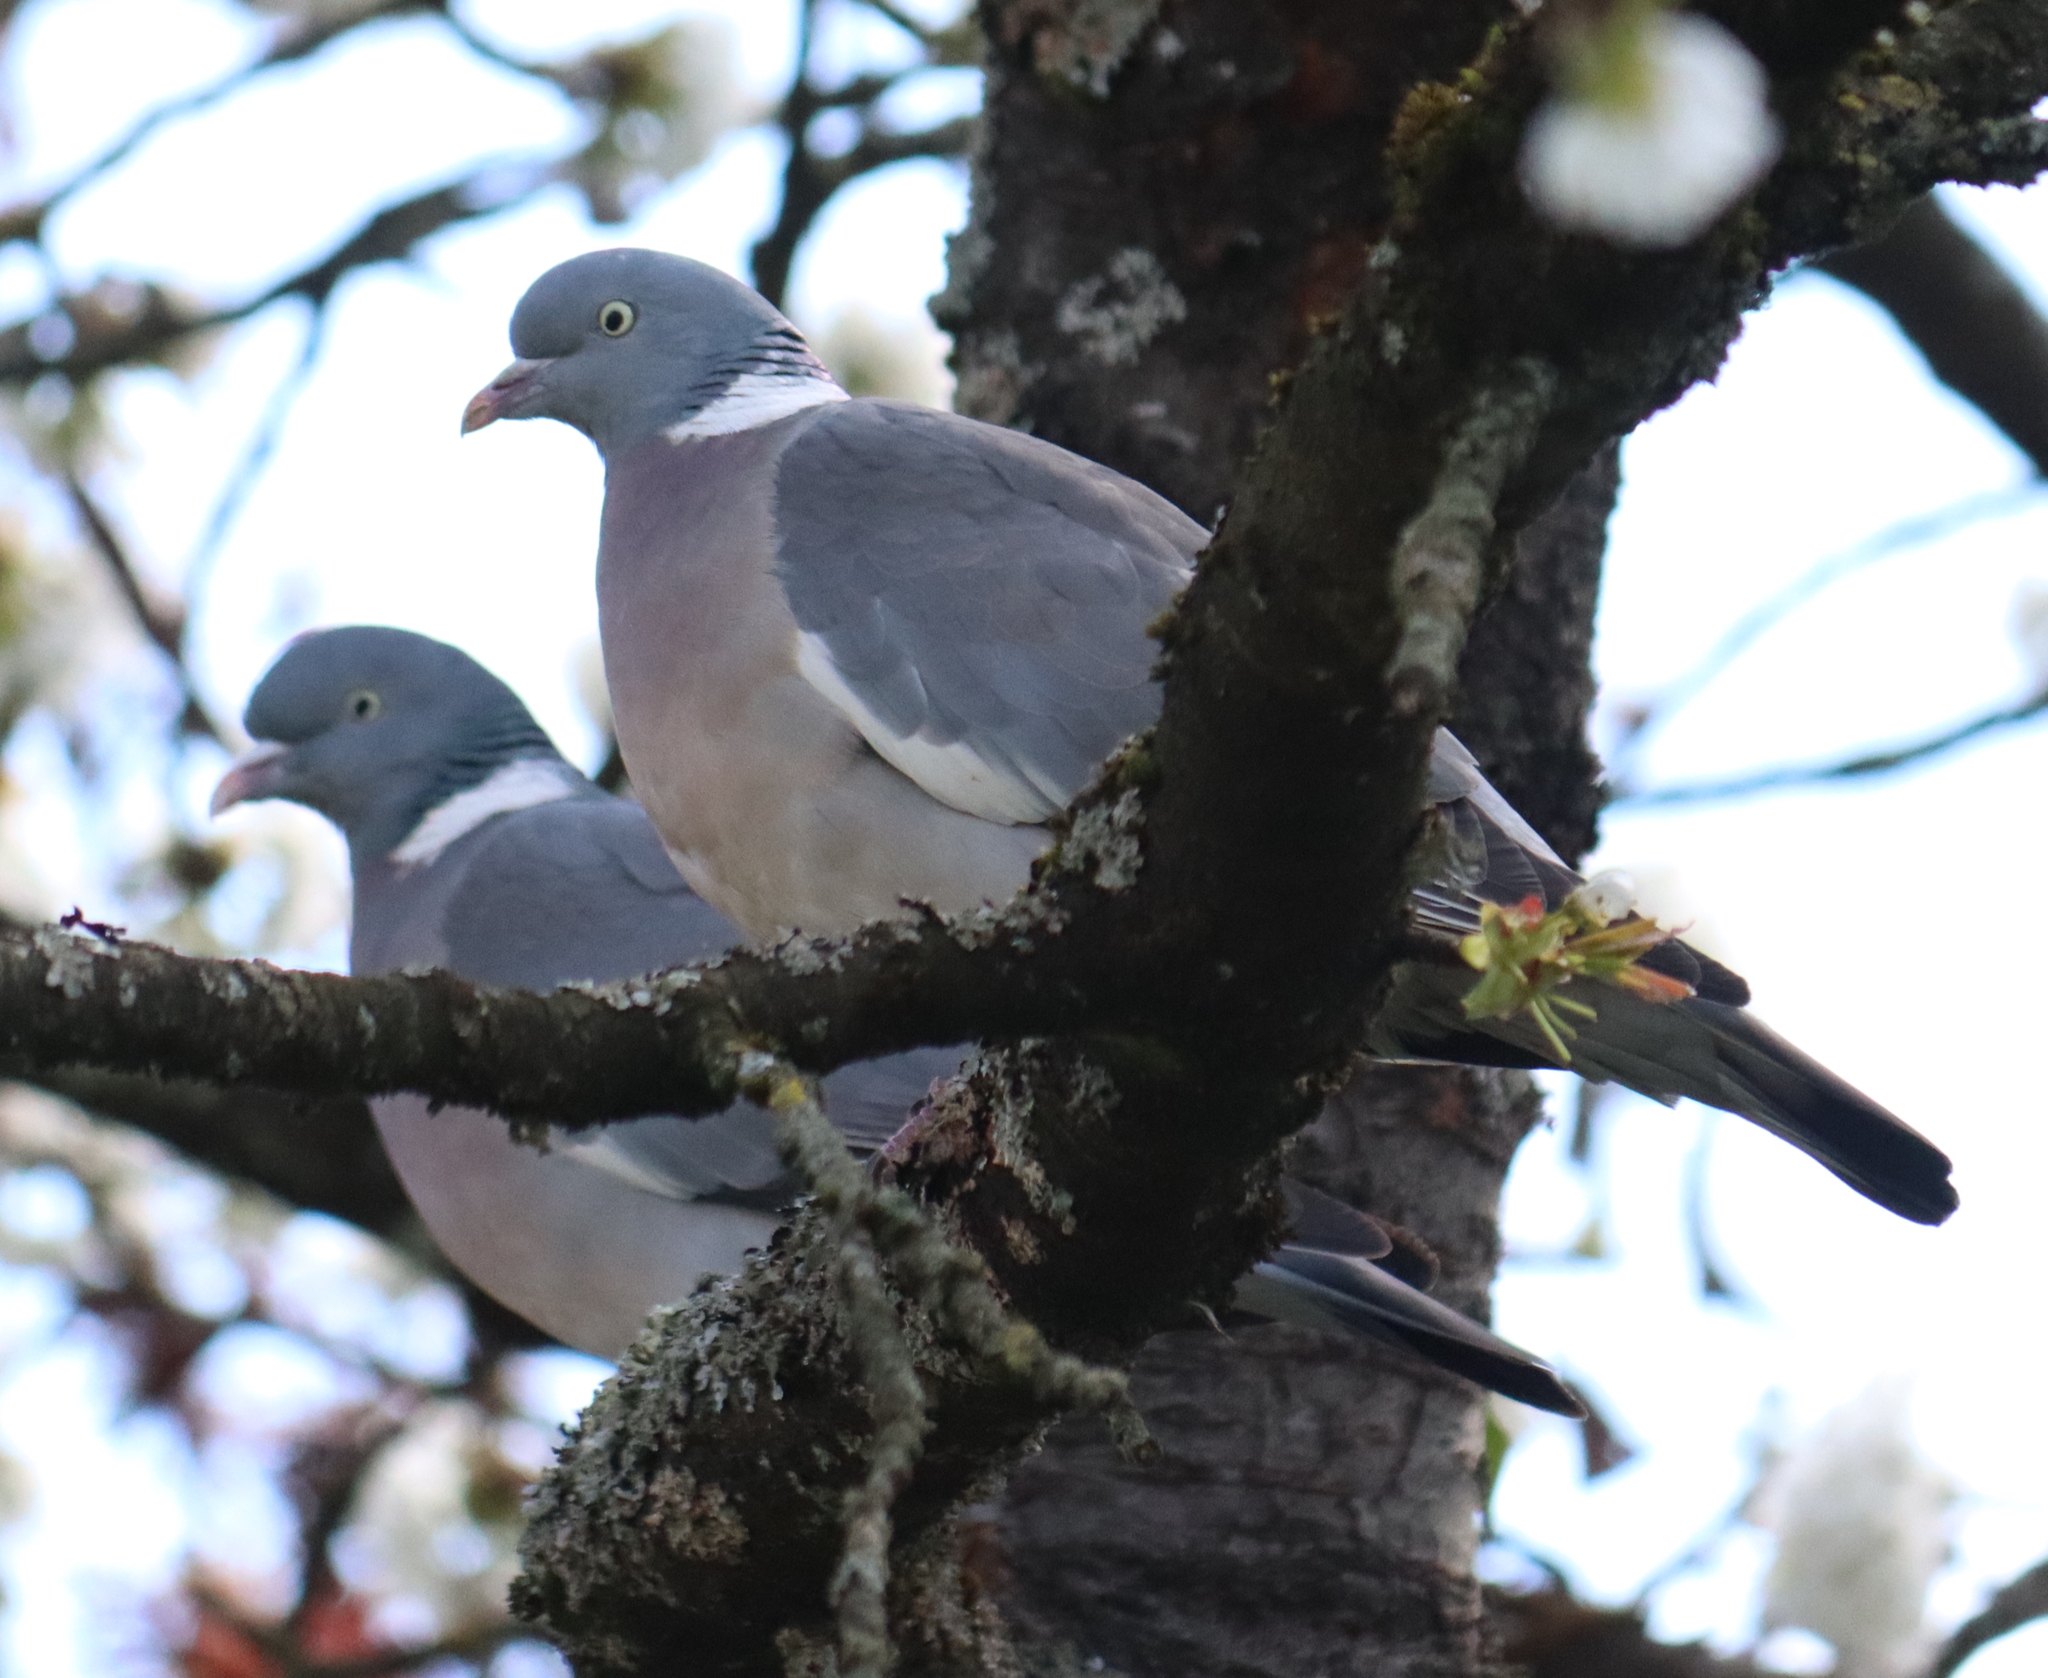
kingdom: Animalia
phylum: Chordata
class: Aves
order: Columbiformes
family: Columbidae
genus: Columba
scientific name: Columba palumbus
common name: Common wood pigeon
